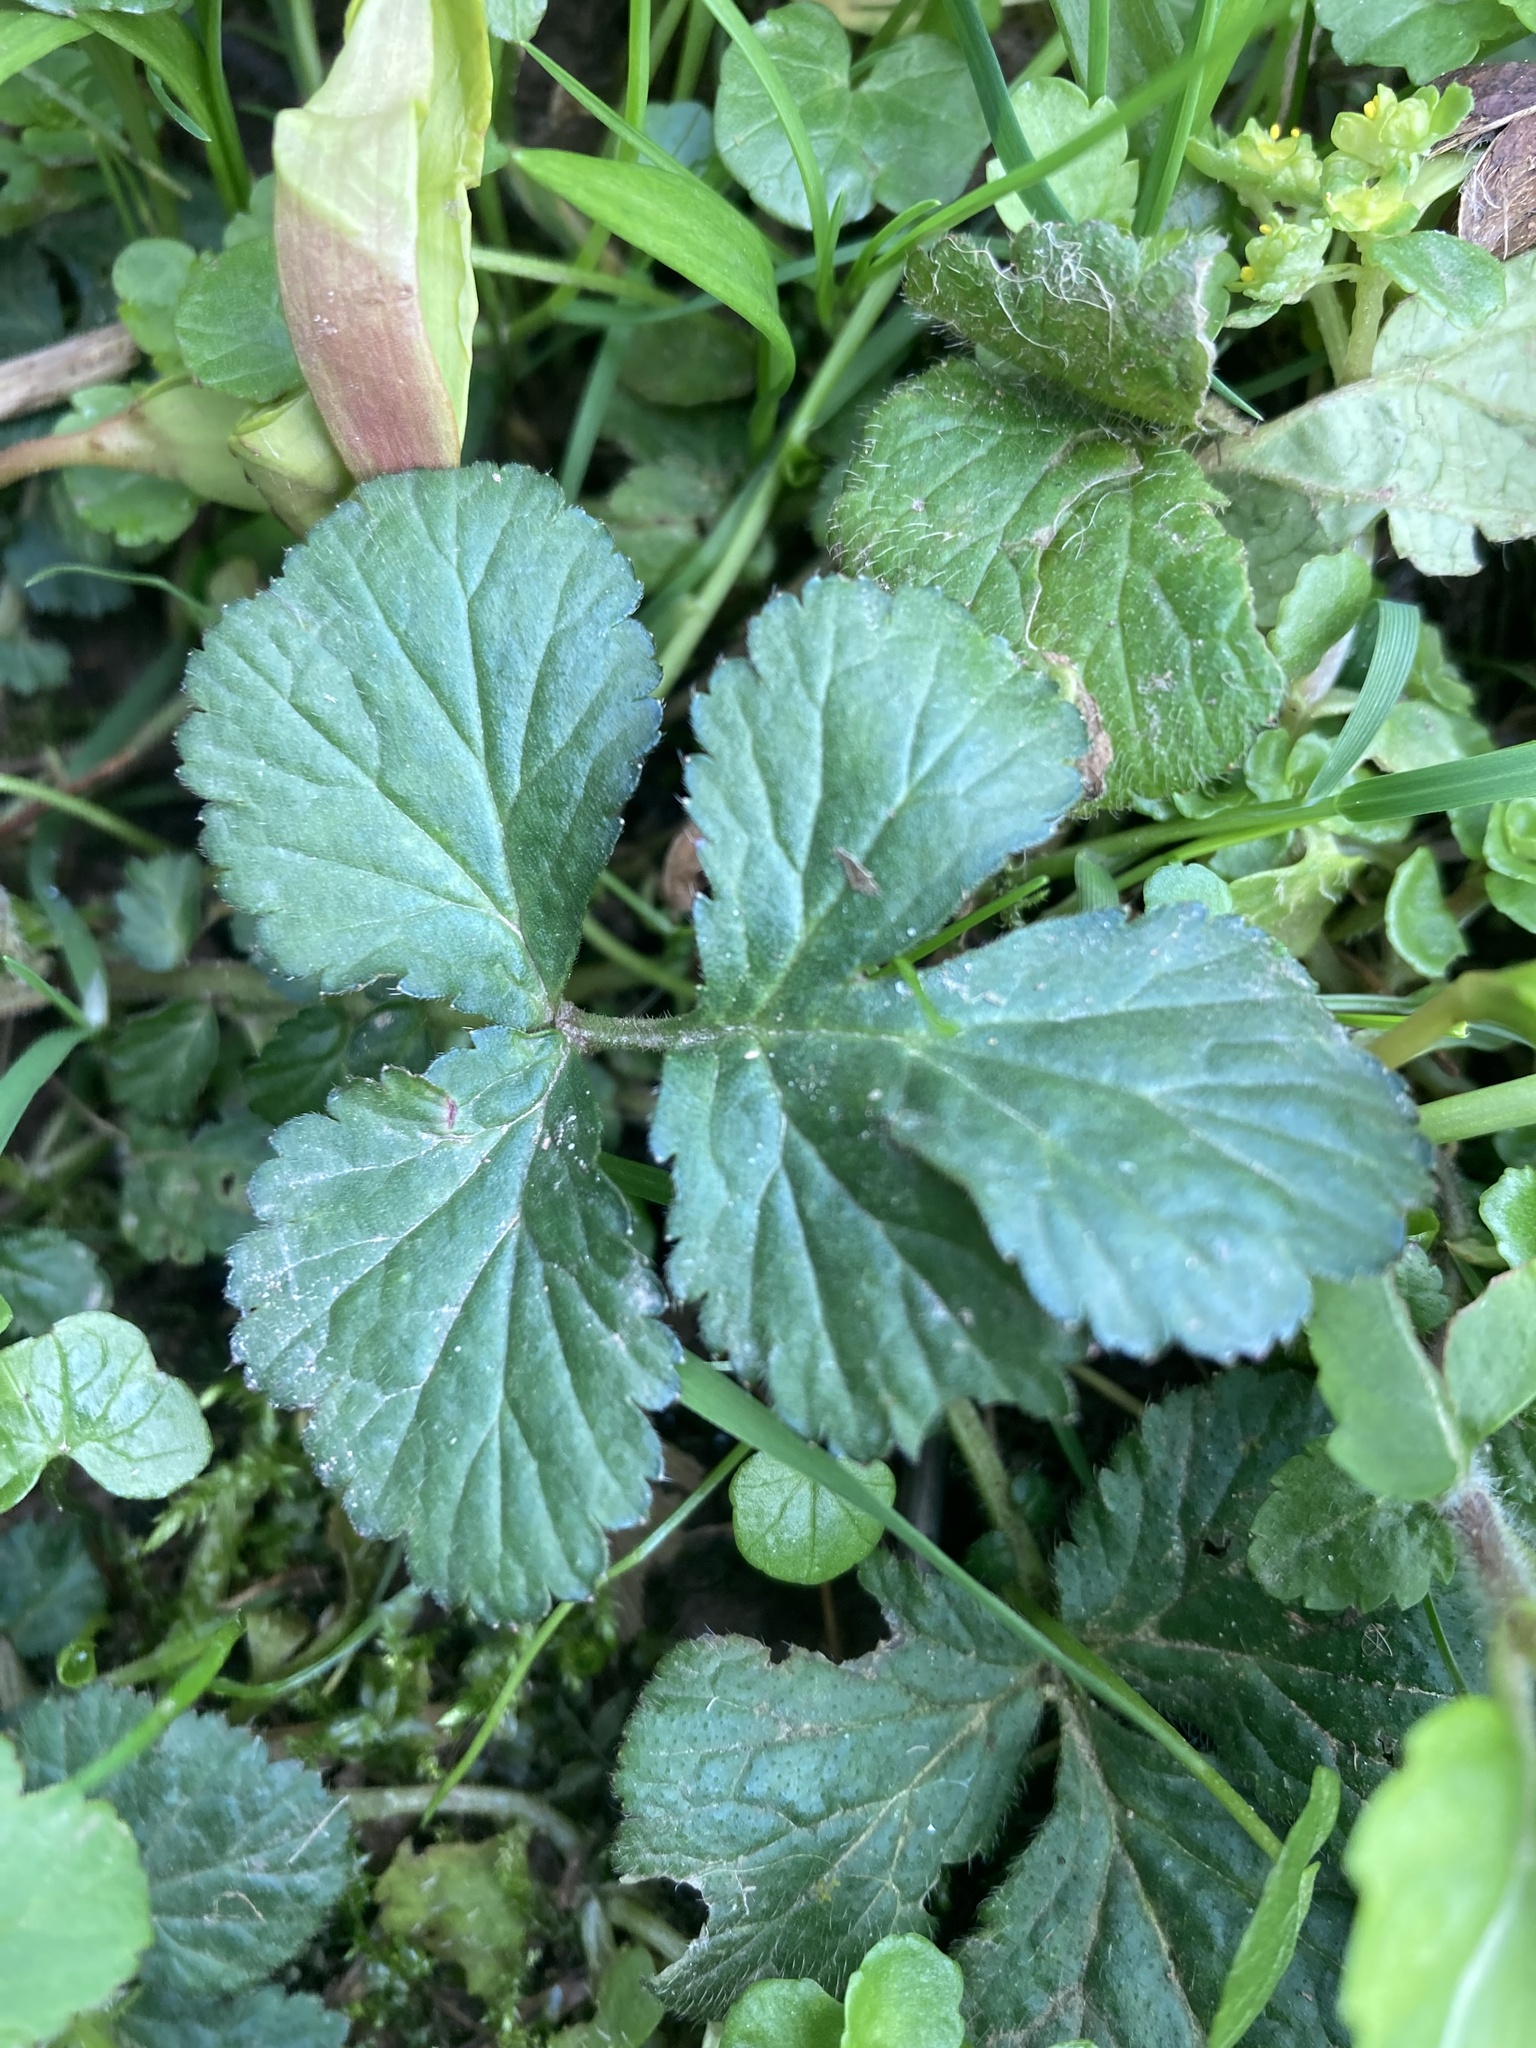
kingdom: Plantae
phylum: Tracheophyta
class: Magnoliopsida
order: Rosales
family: Rosaceae
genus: Geum
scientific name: Geum urbanum
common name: Wood avens
